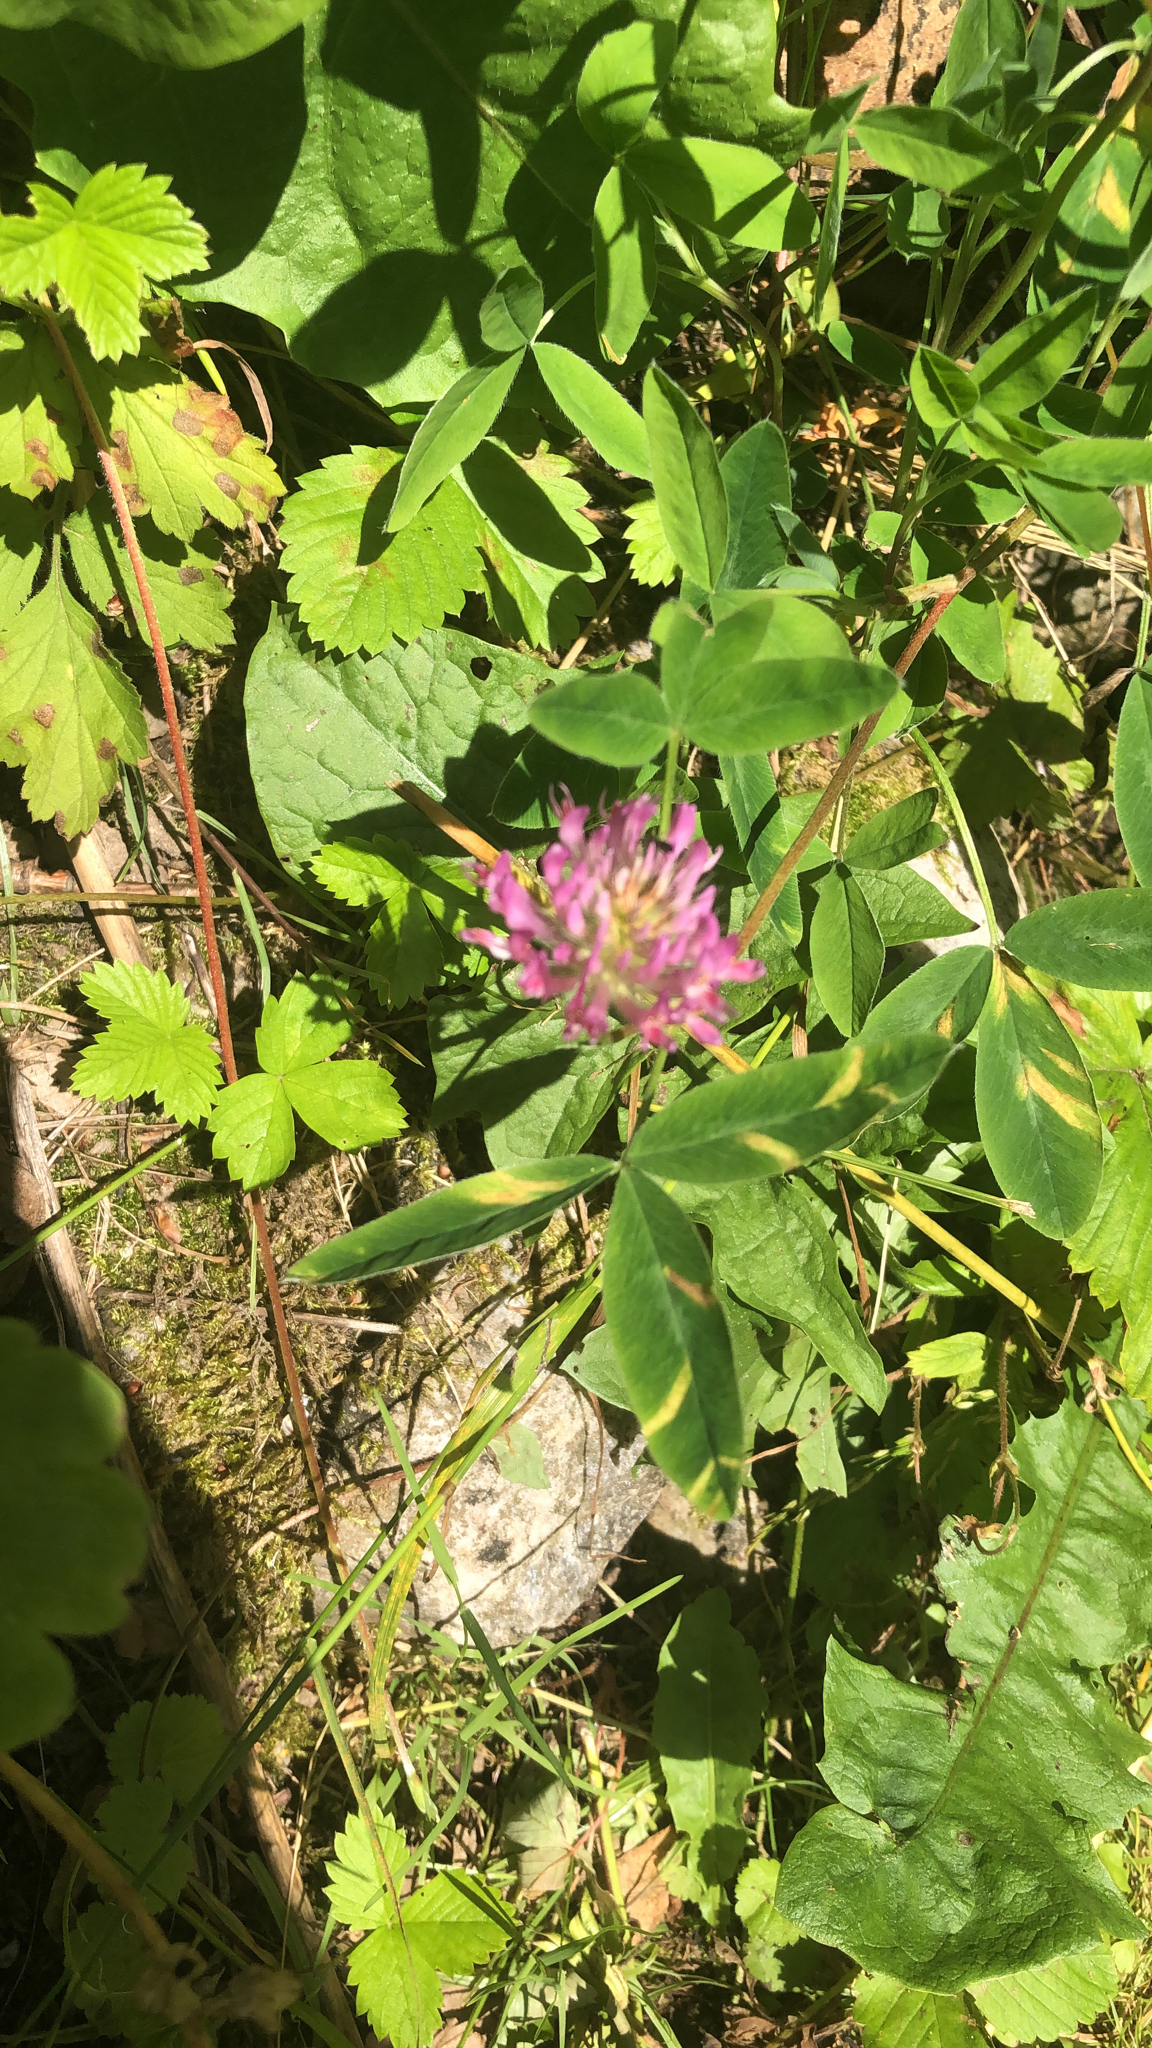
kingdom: Plantae
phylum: Tracheophyta
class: Magnoliopsida
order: Fabales
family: Fabaceae
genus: Trifolium
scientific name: Trifolium medium
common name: Zigzag clover
